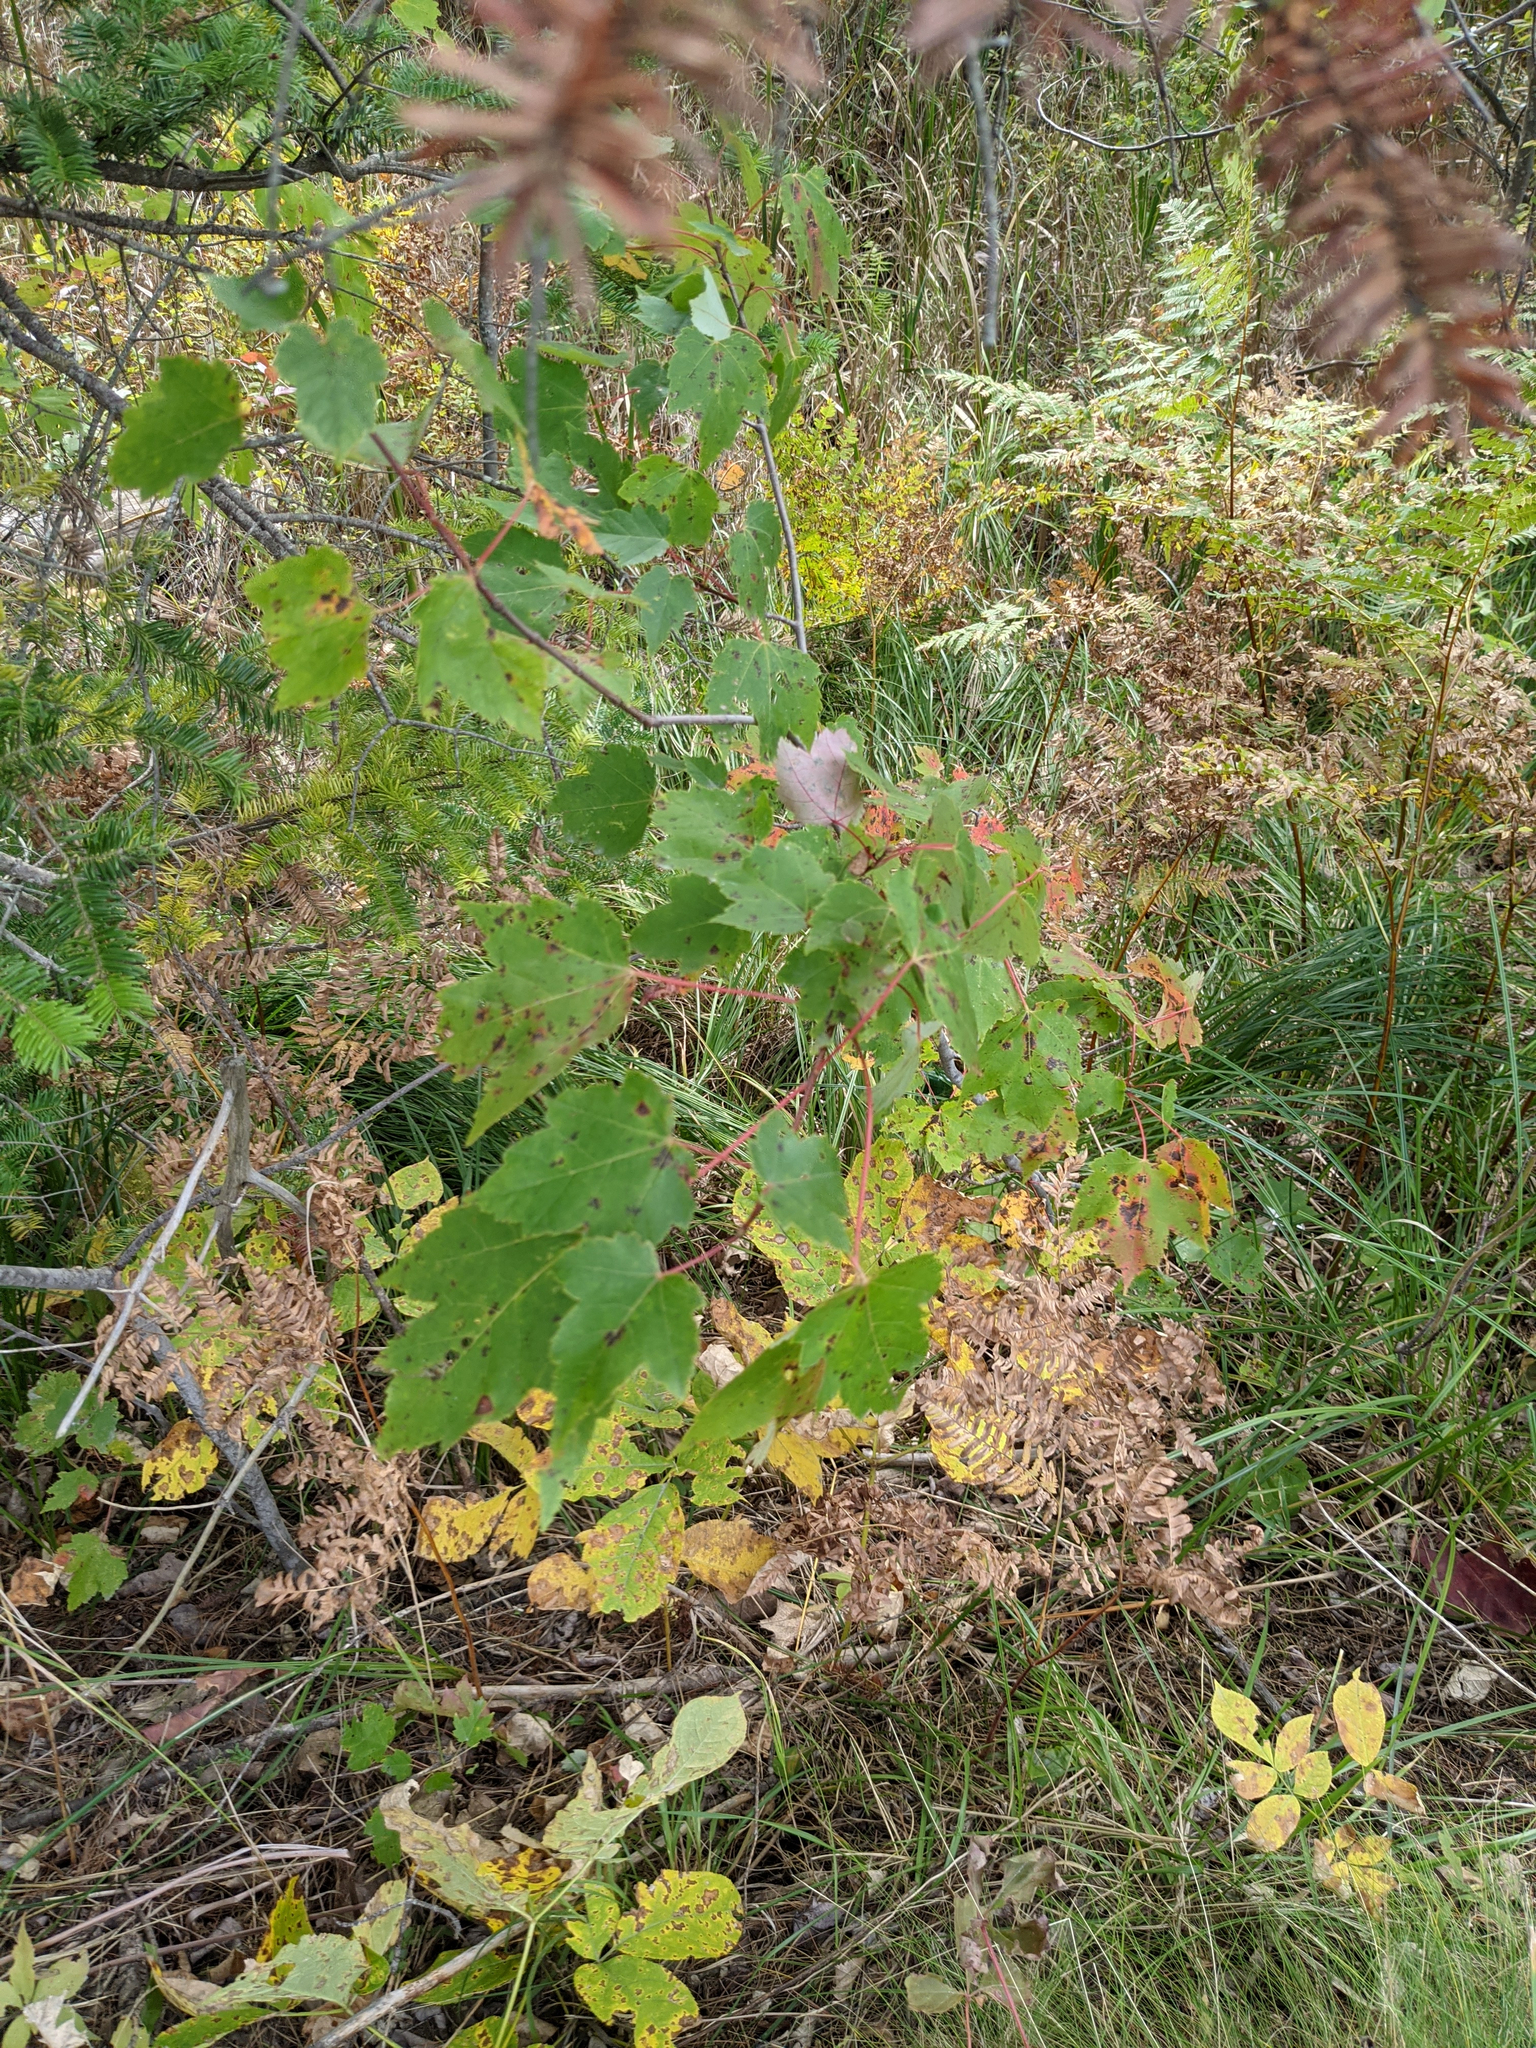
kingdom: Plantae
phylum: Tracheophyta
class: Magnoliopsida
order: Sapindales
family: Sapindaceae
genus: Acer
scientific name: Acer rubrum
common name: Red maple
